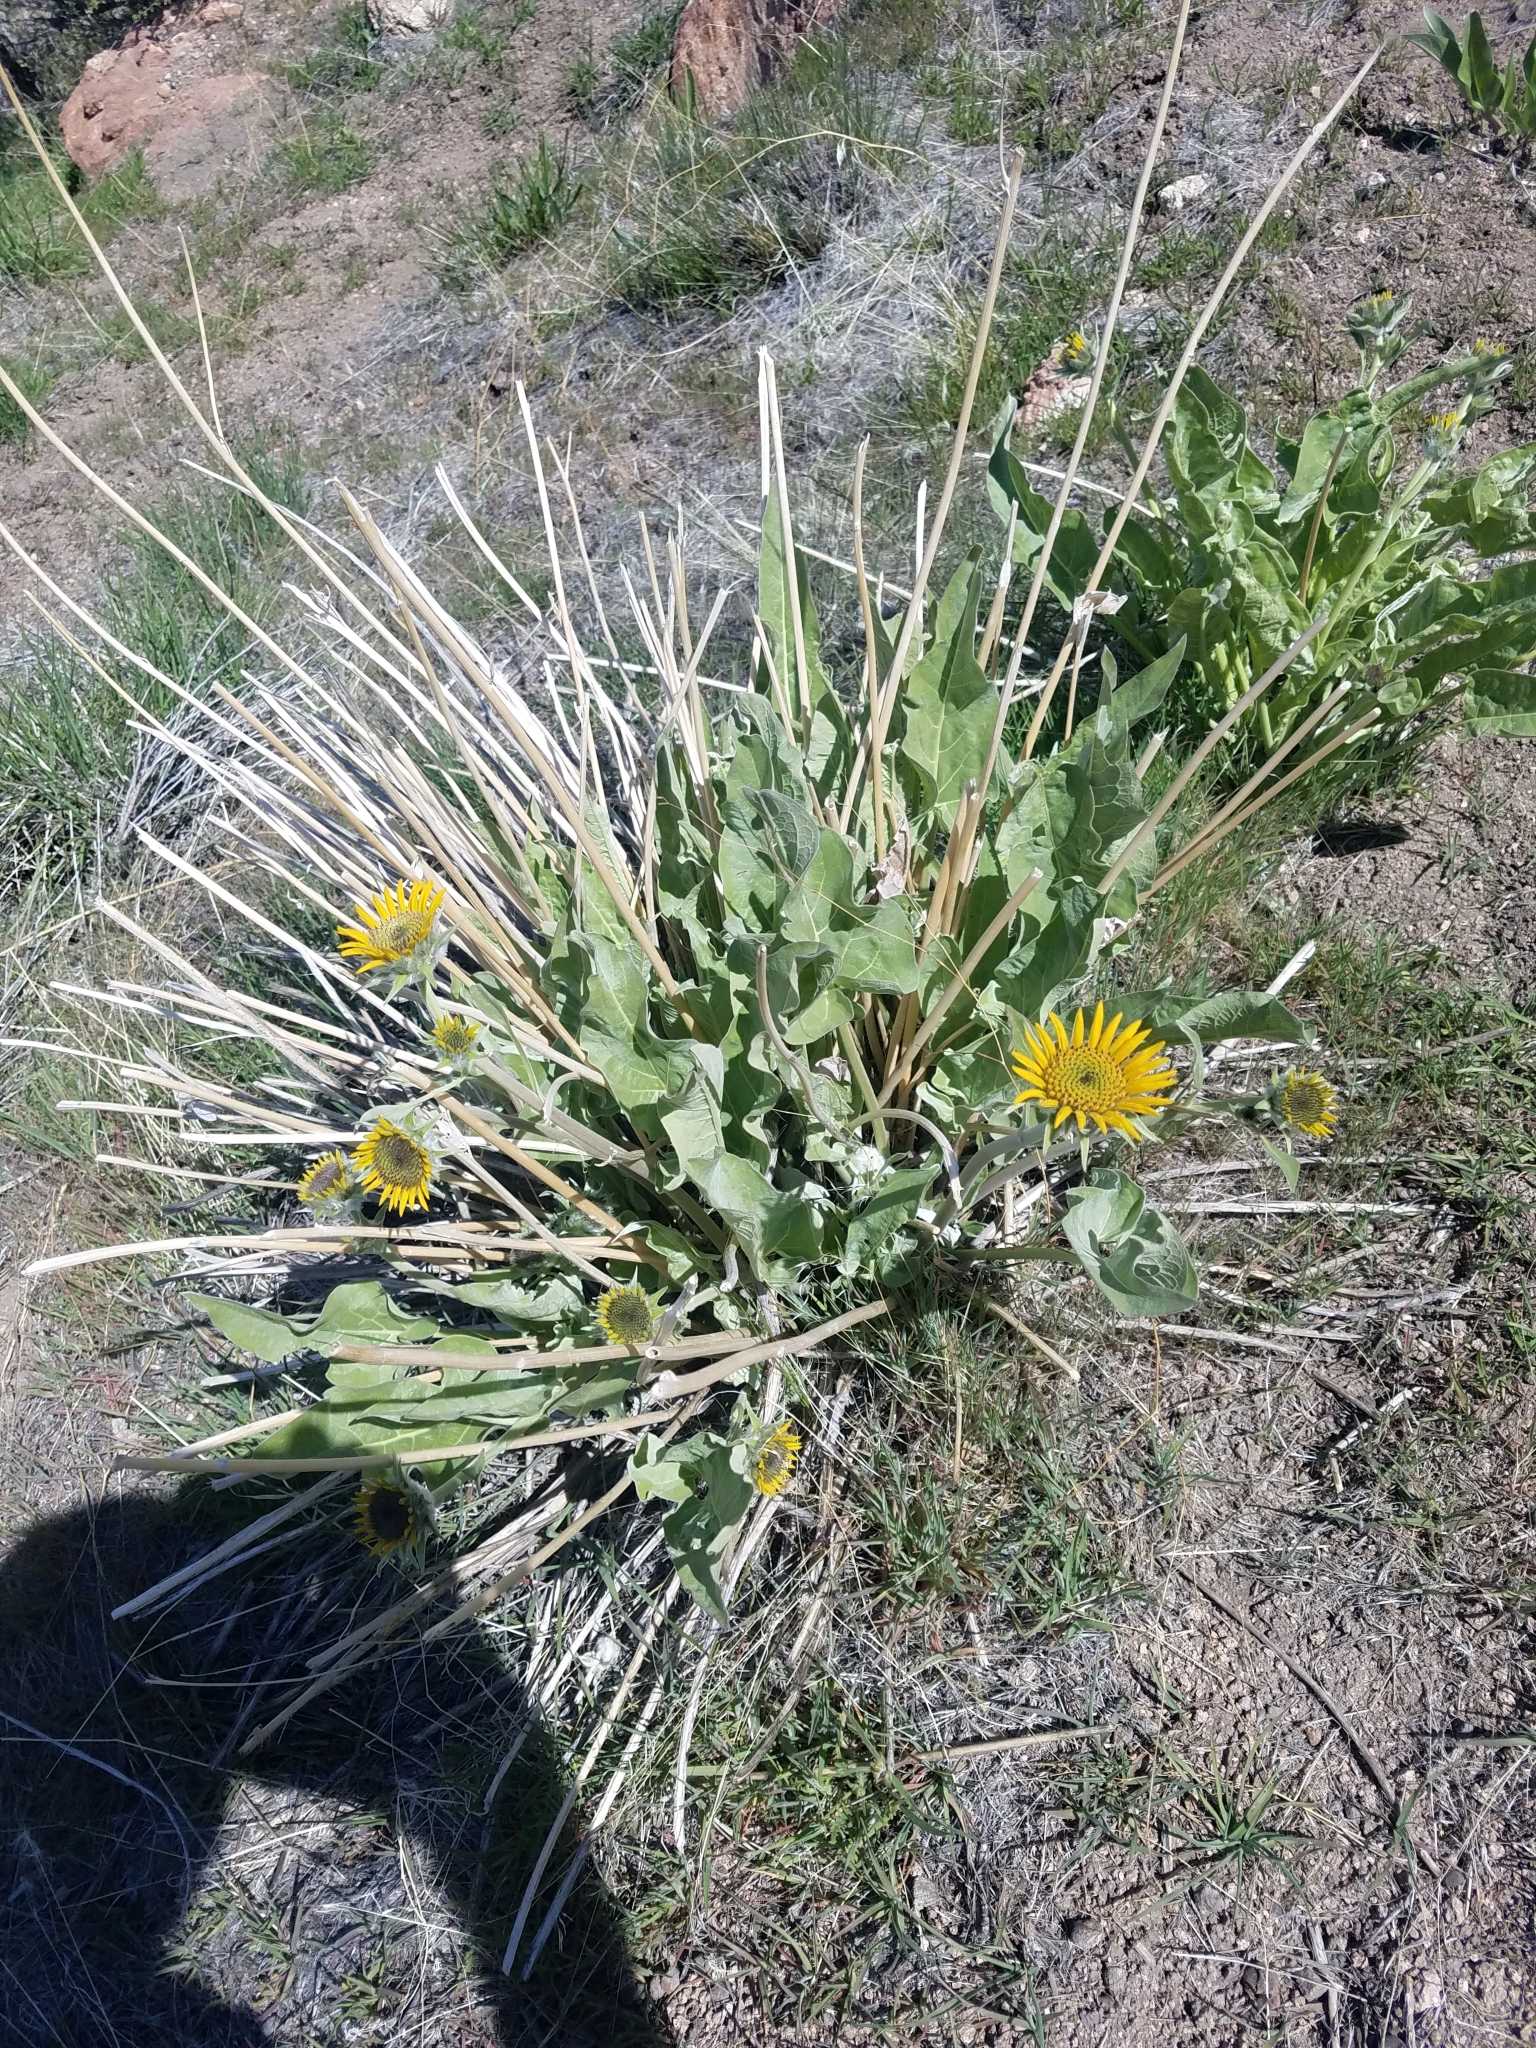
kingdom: Plantae
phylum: Tracheophyta
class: Magnoliopsida
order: Asterales
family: Asteraceae
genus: Wyethia
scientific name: Wyethia sagittata
